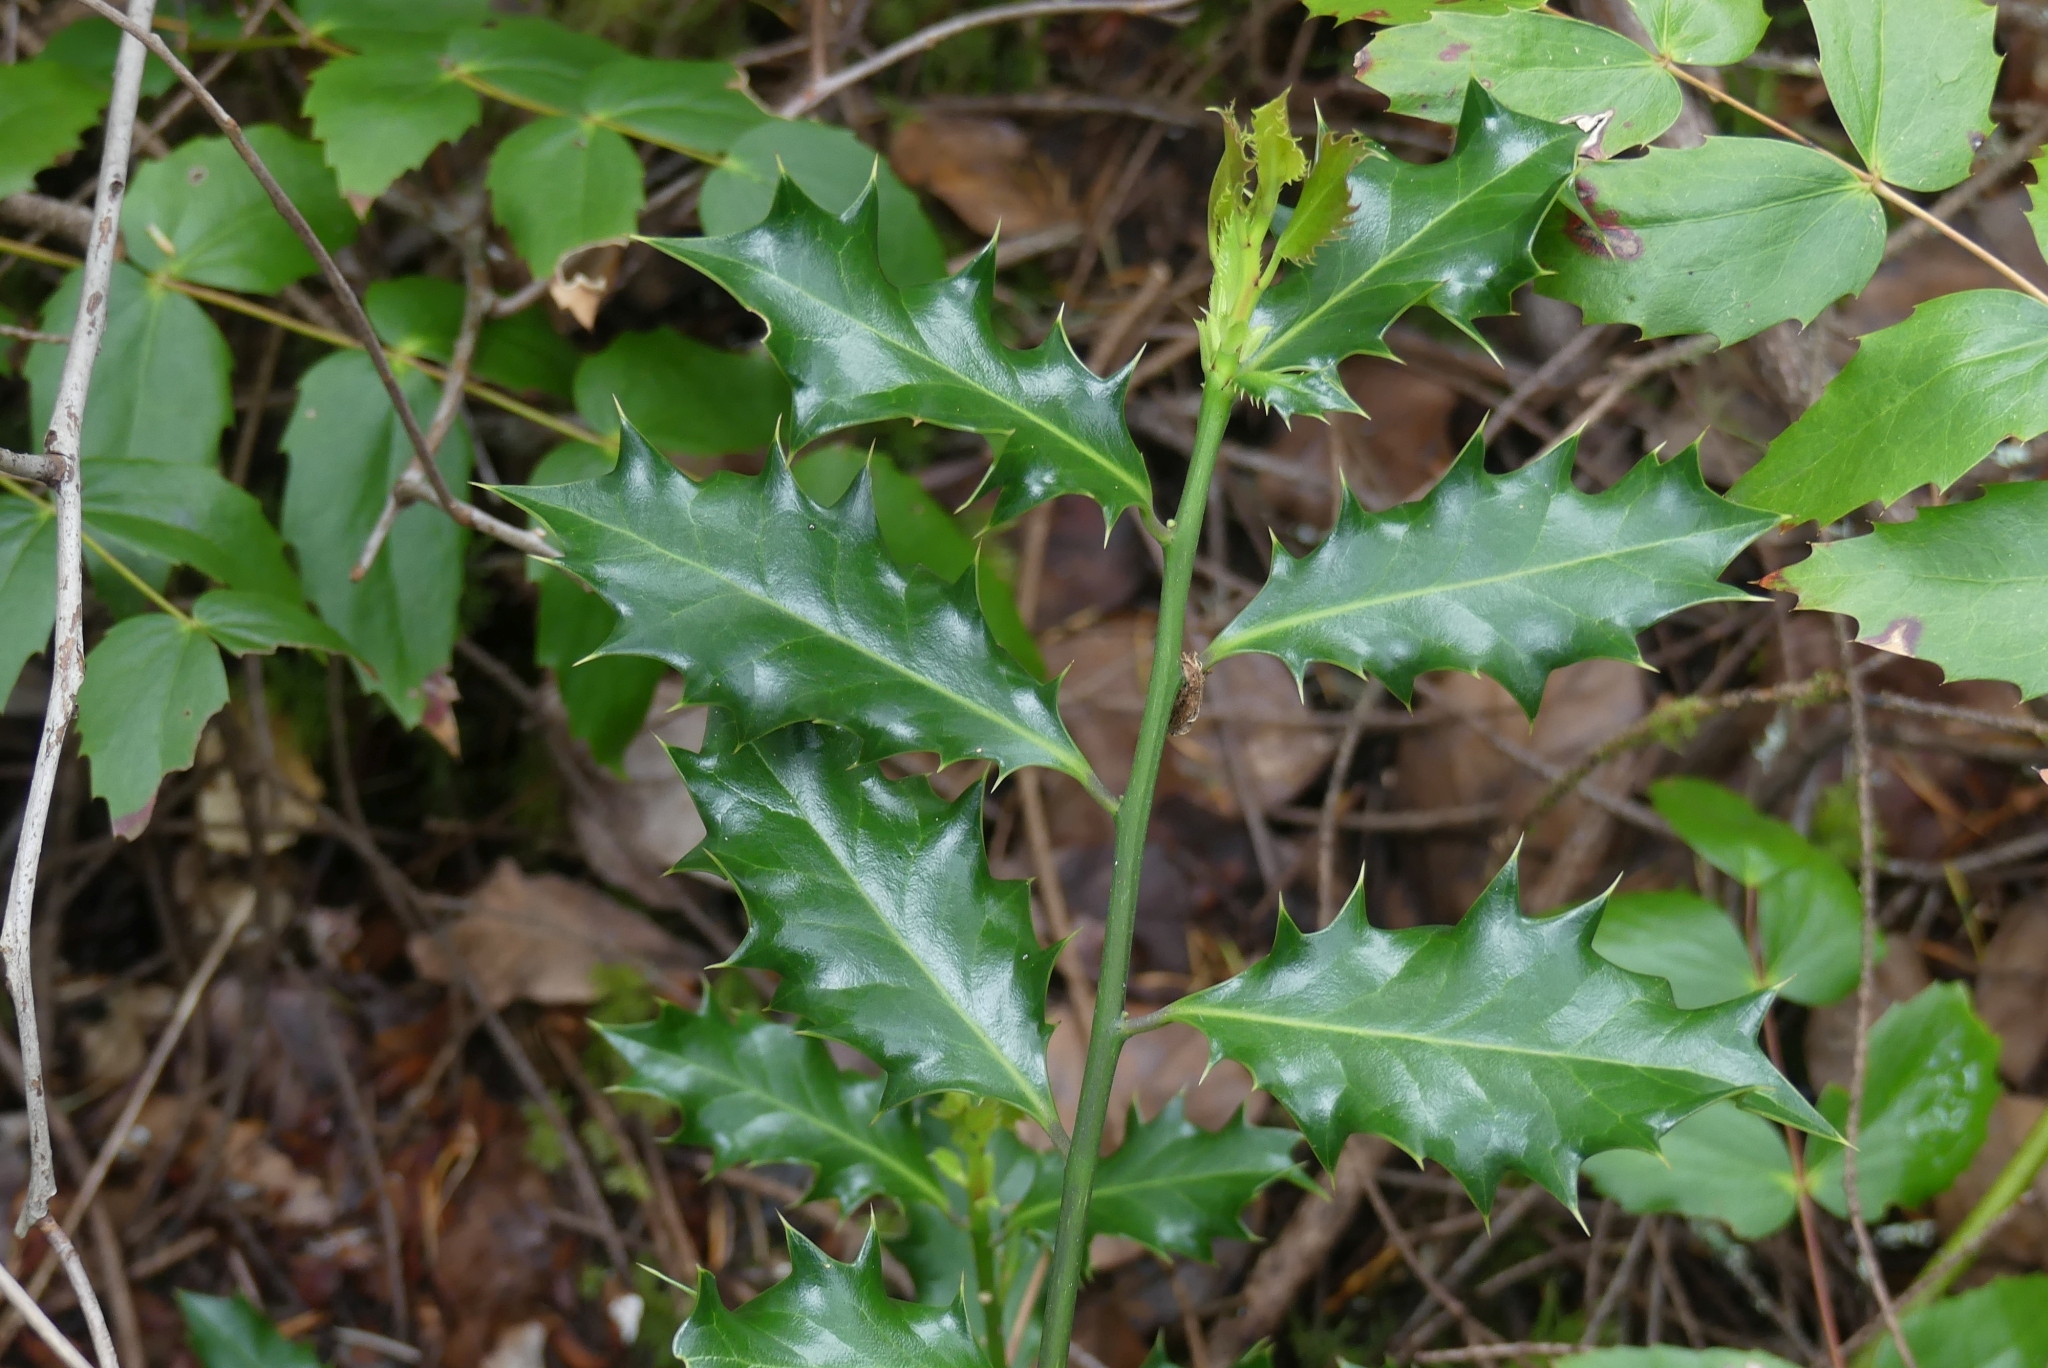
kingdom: Plantae
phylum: Tracheophyta
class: Magnoliopsida
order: Aquifoliales
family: Aquifoliaceae
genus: Ilex
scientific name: Ilex aquifolium
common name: English holly
